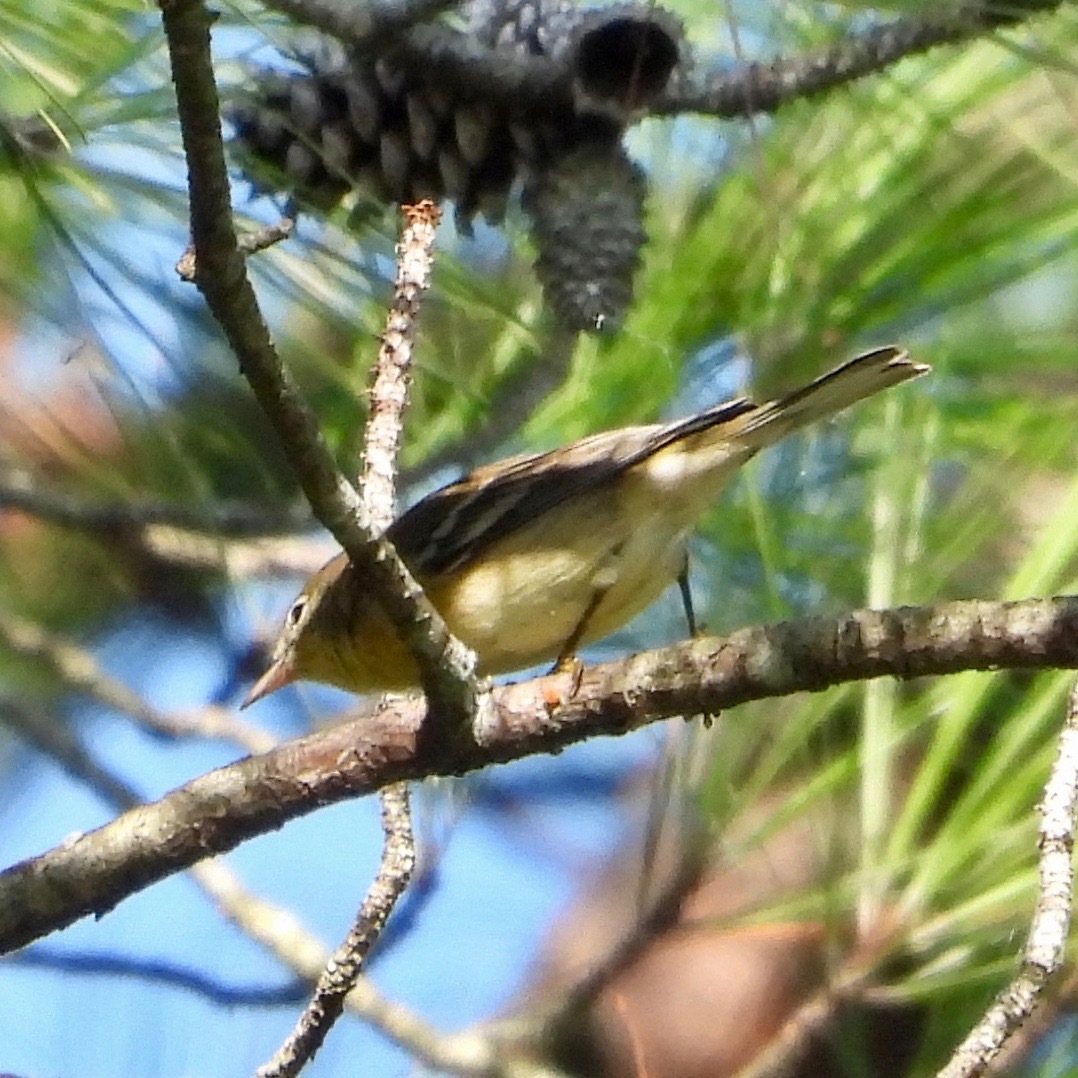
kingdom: Animalia
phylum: Chordata
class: Aves
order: Passeriformes
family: Parulidae
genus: Setophaga
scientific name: Setophaga pinus
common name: Pine warbler
